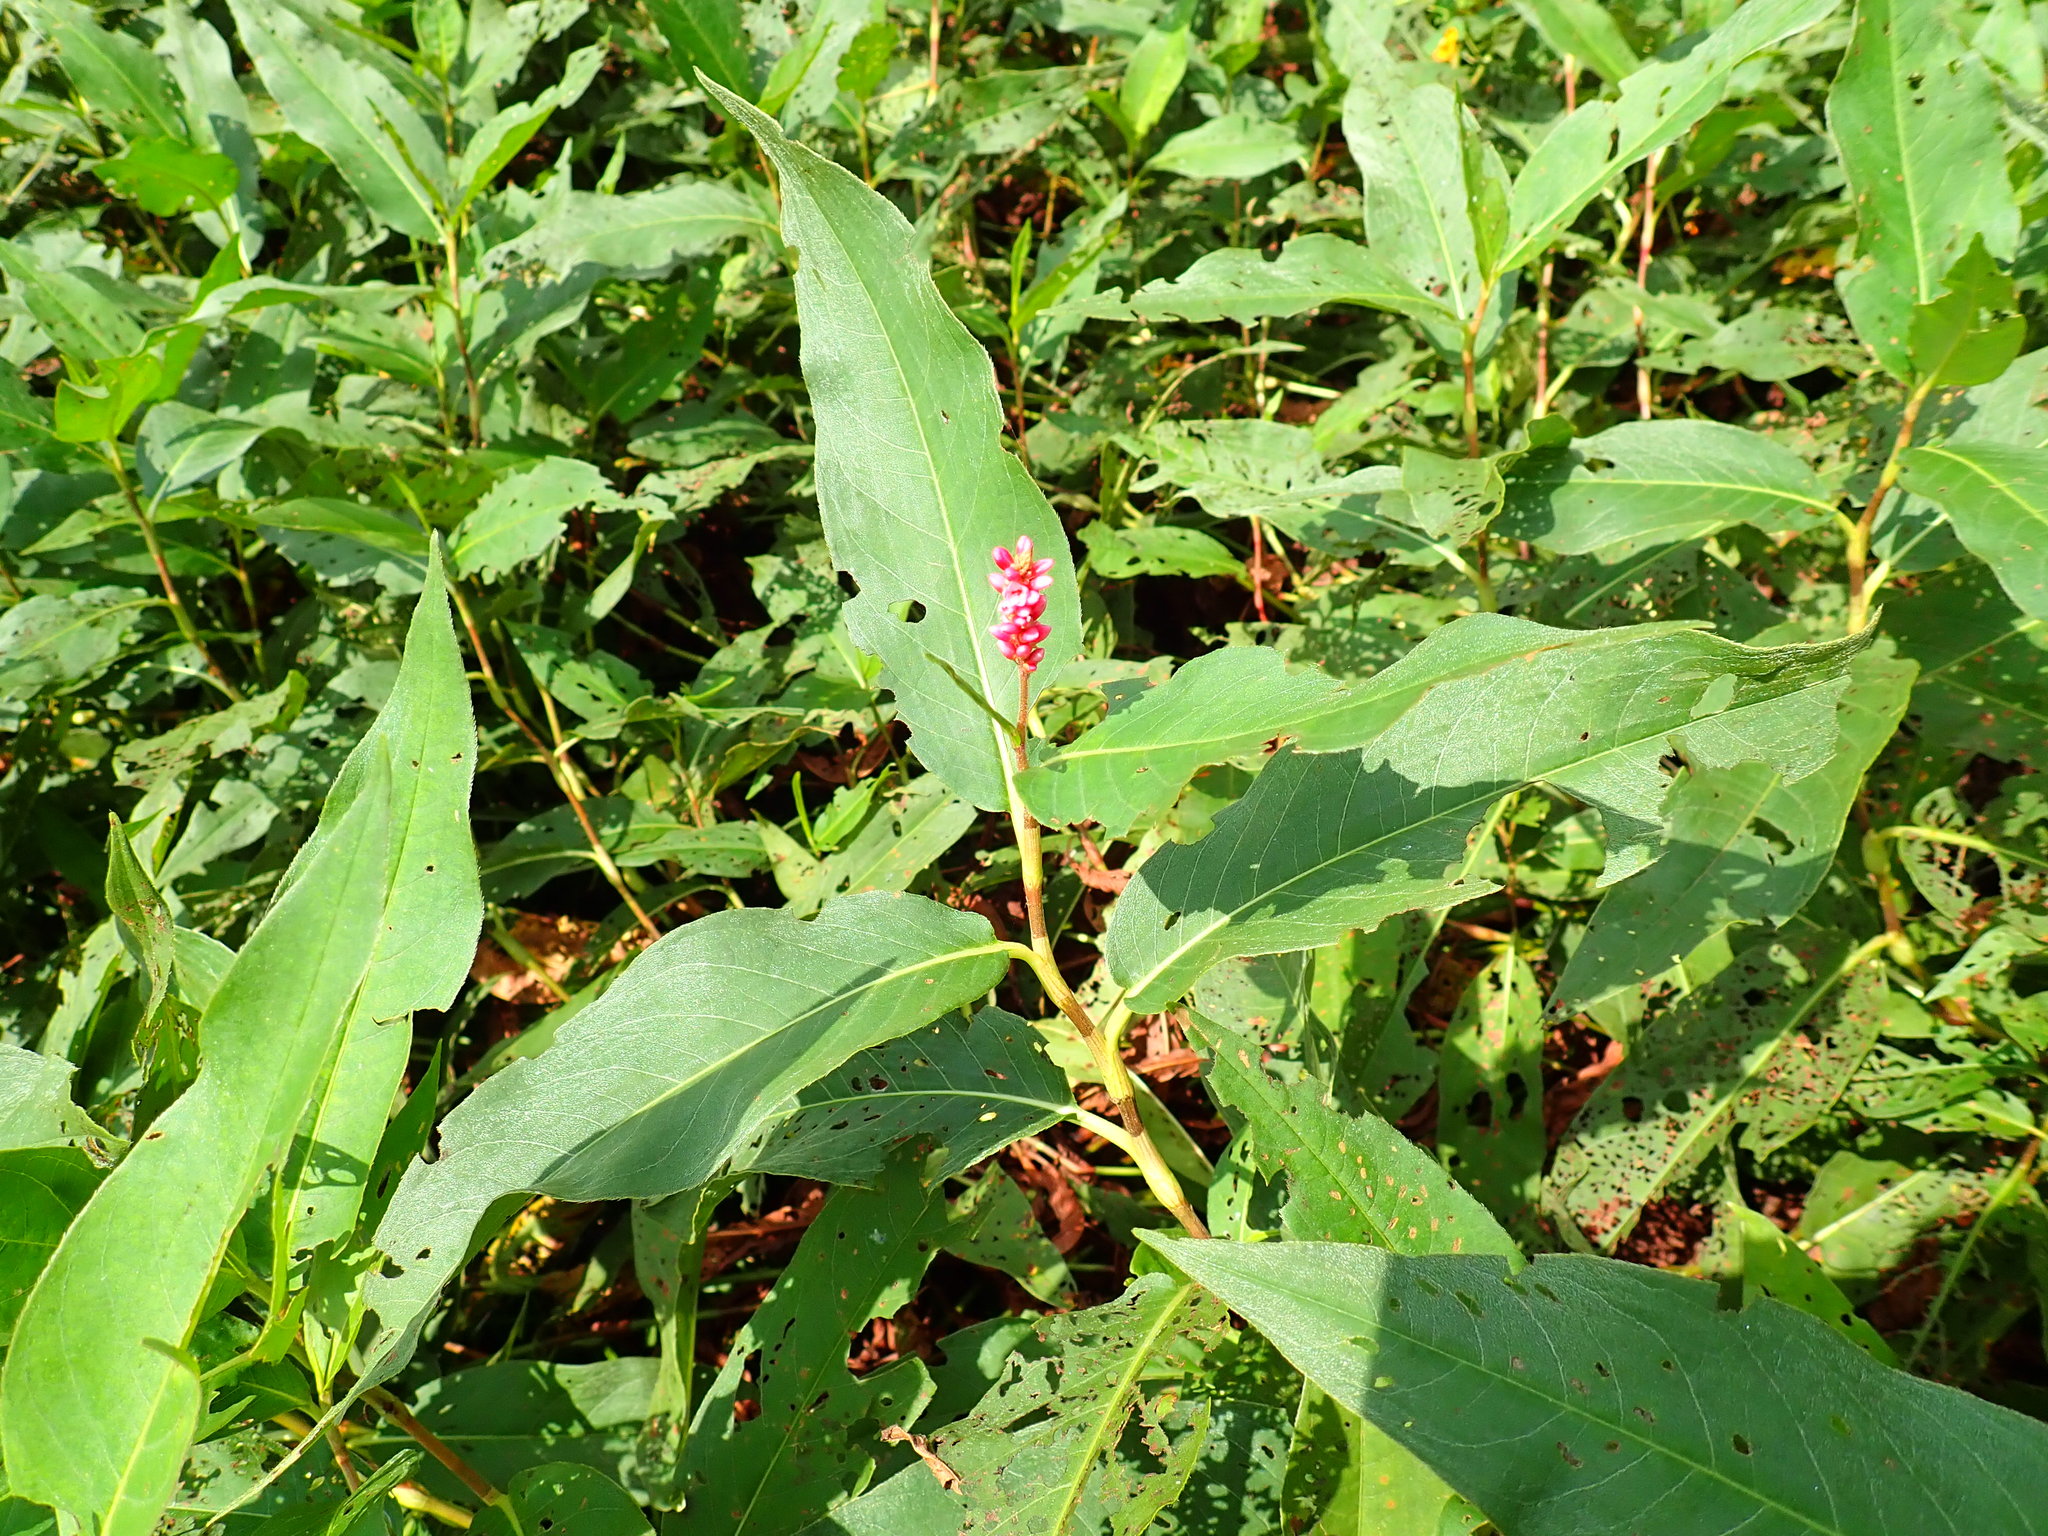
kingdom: Plantae
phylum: Tracheophyta
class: Magnoliopsida
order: Caryophyllales
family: Polygonaceae
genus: Persicaria
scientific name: Persicaria amphibia
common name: Amphibious bistort
